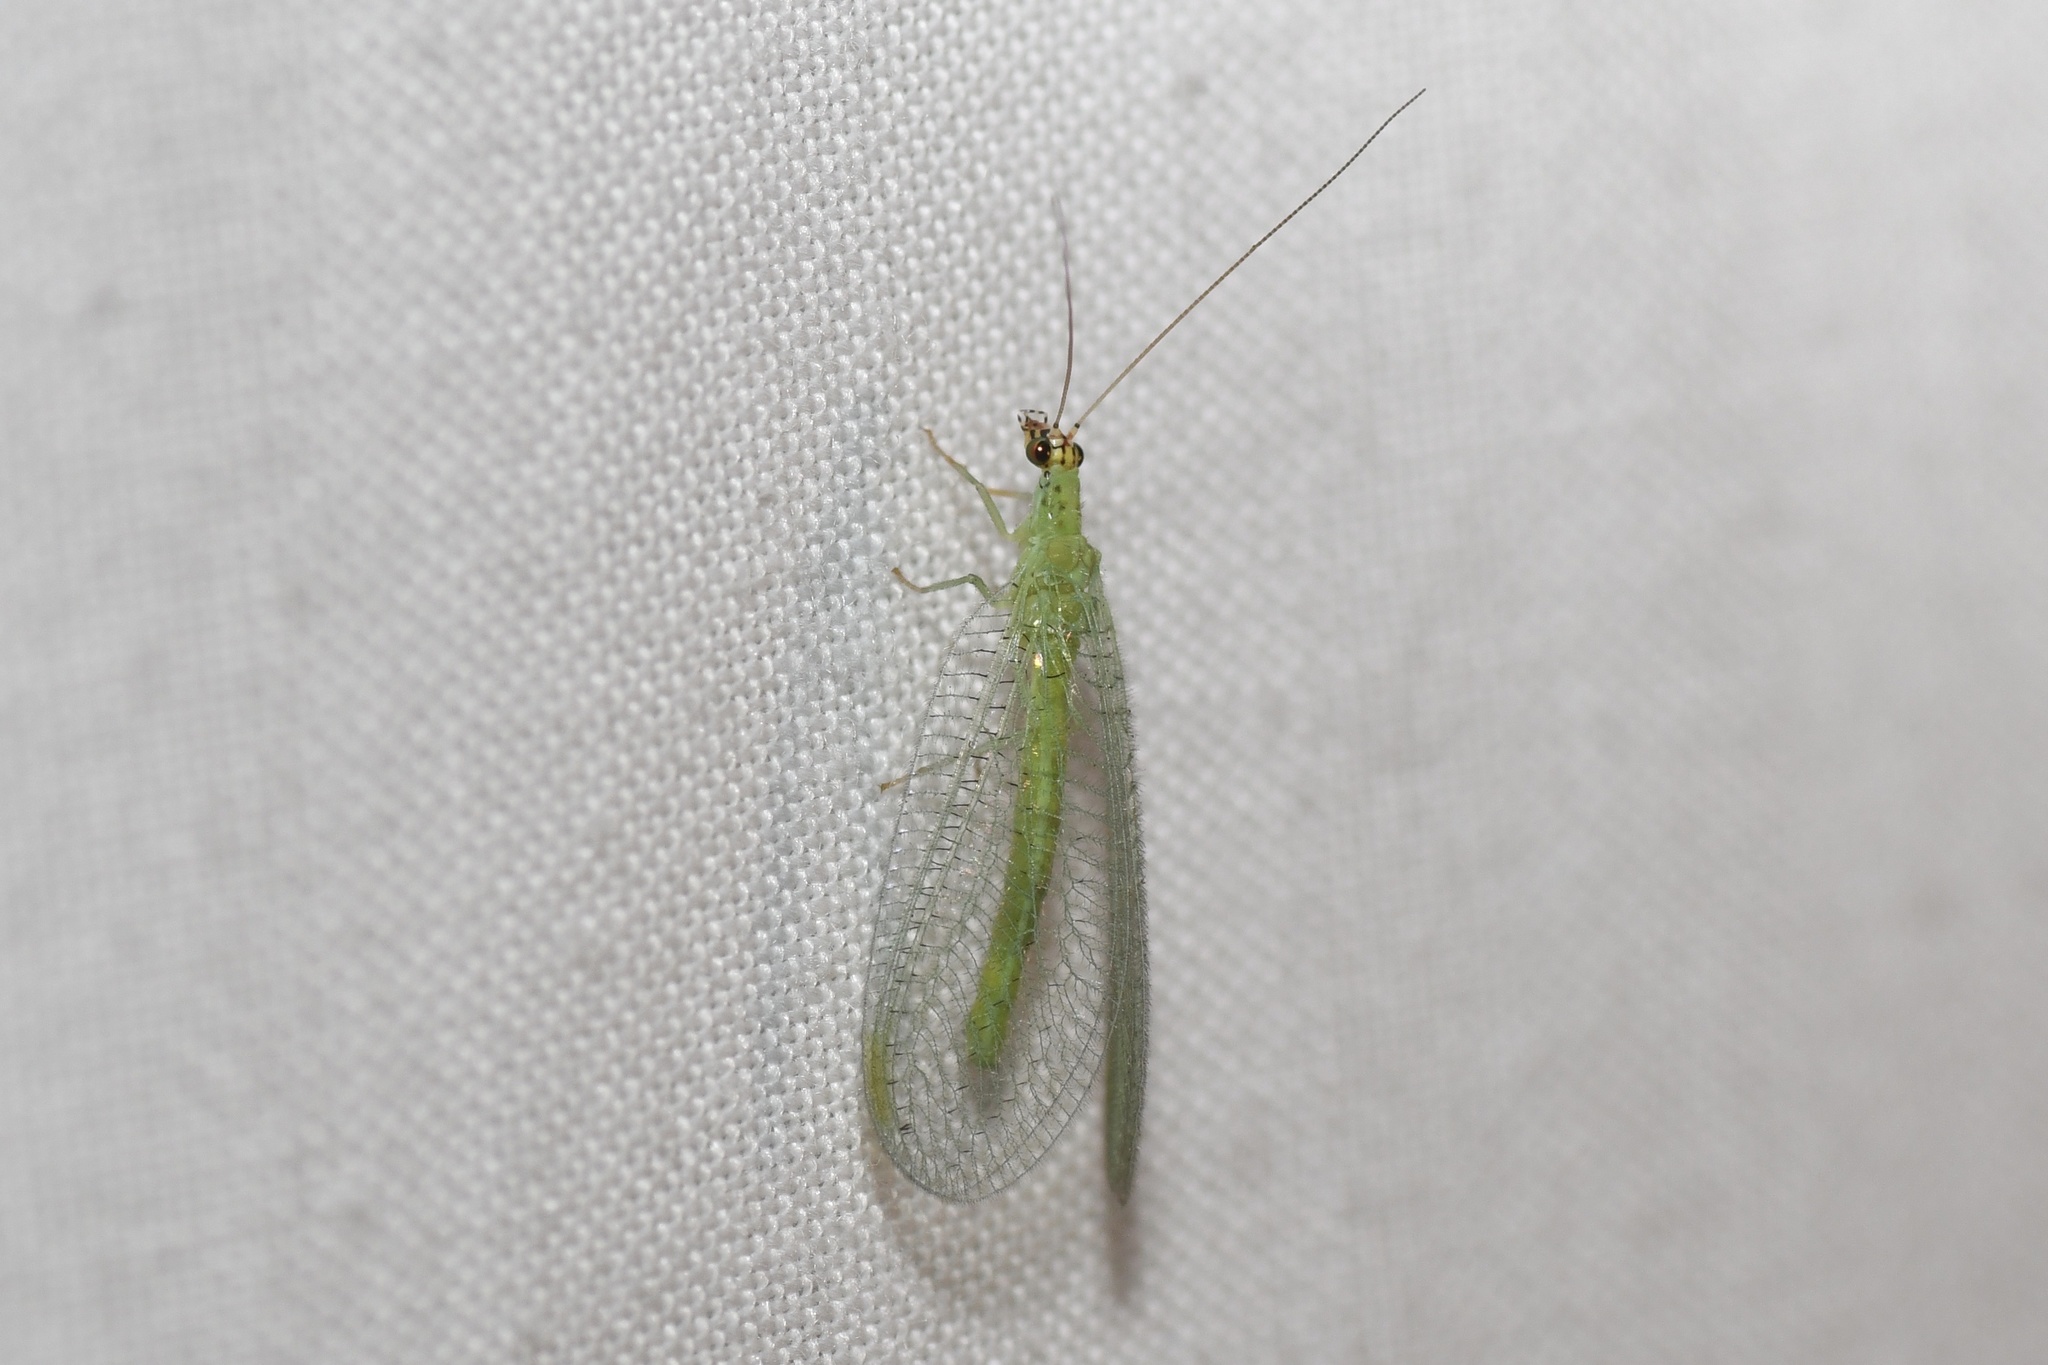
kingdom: Animalia
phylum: Arthropoda
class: Insecta
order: Neuroptera
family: Chrysopidae
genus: Chrysopa
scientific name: Chrysopa oculata
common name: Golden-eyed lacewing
